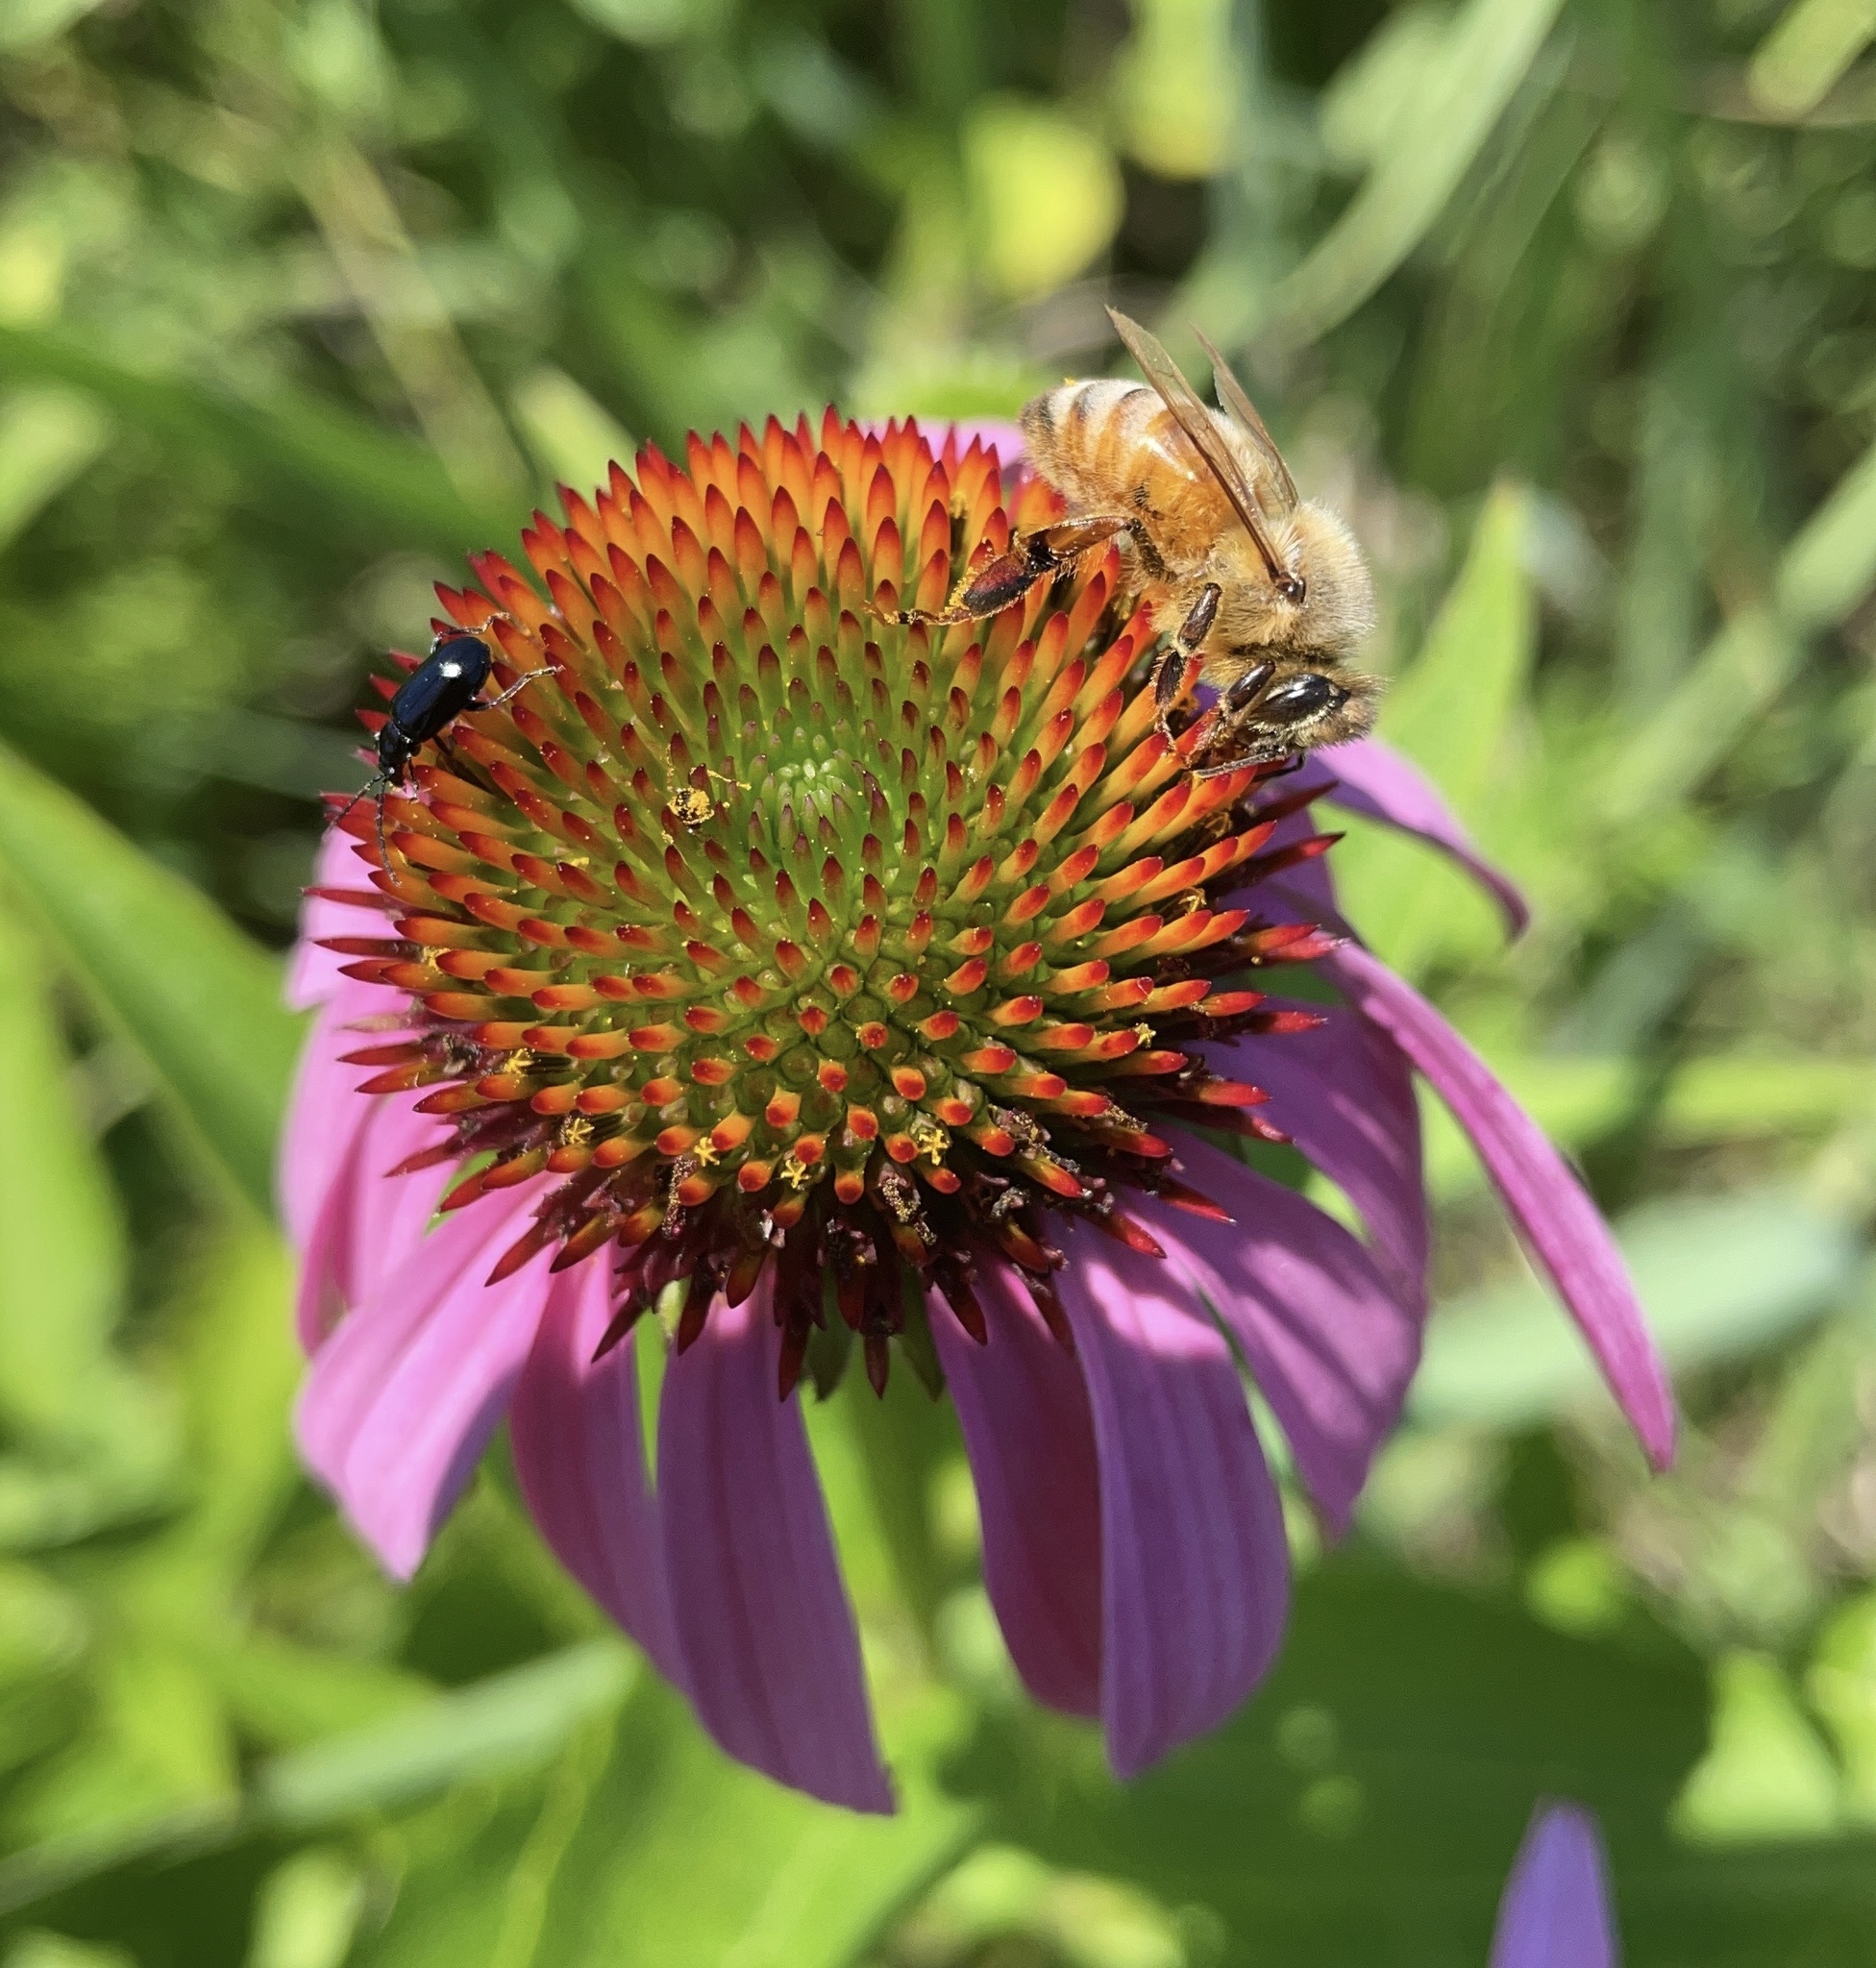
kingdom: Animalia
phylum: Arthropoda
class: Insecta
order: Hymenoptera
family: Apidae
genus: Apis
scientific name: Apis mellifera
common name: Honey bee
